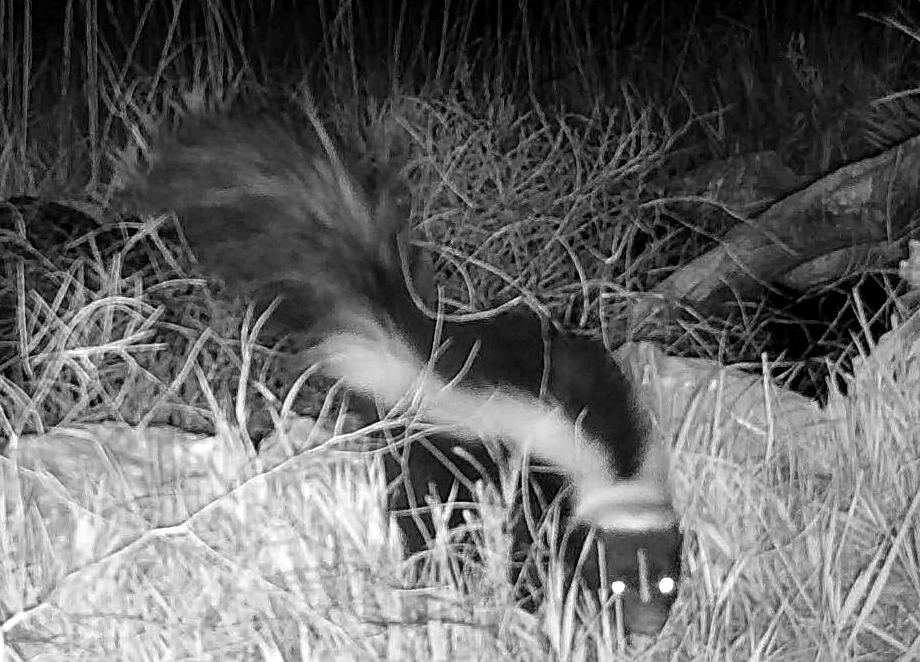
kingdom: Animalia
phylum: Chordata
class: Mammalia
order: Carnivora
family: Mephitidae
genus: Mephitis
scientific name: Mephitis mephitis
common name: Striped skunk
